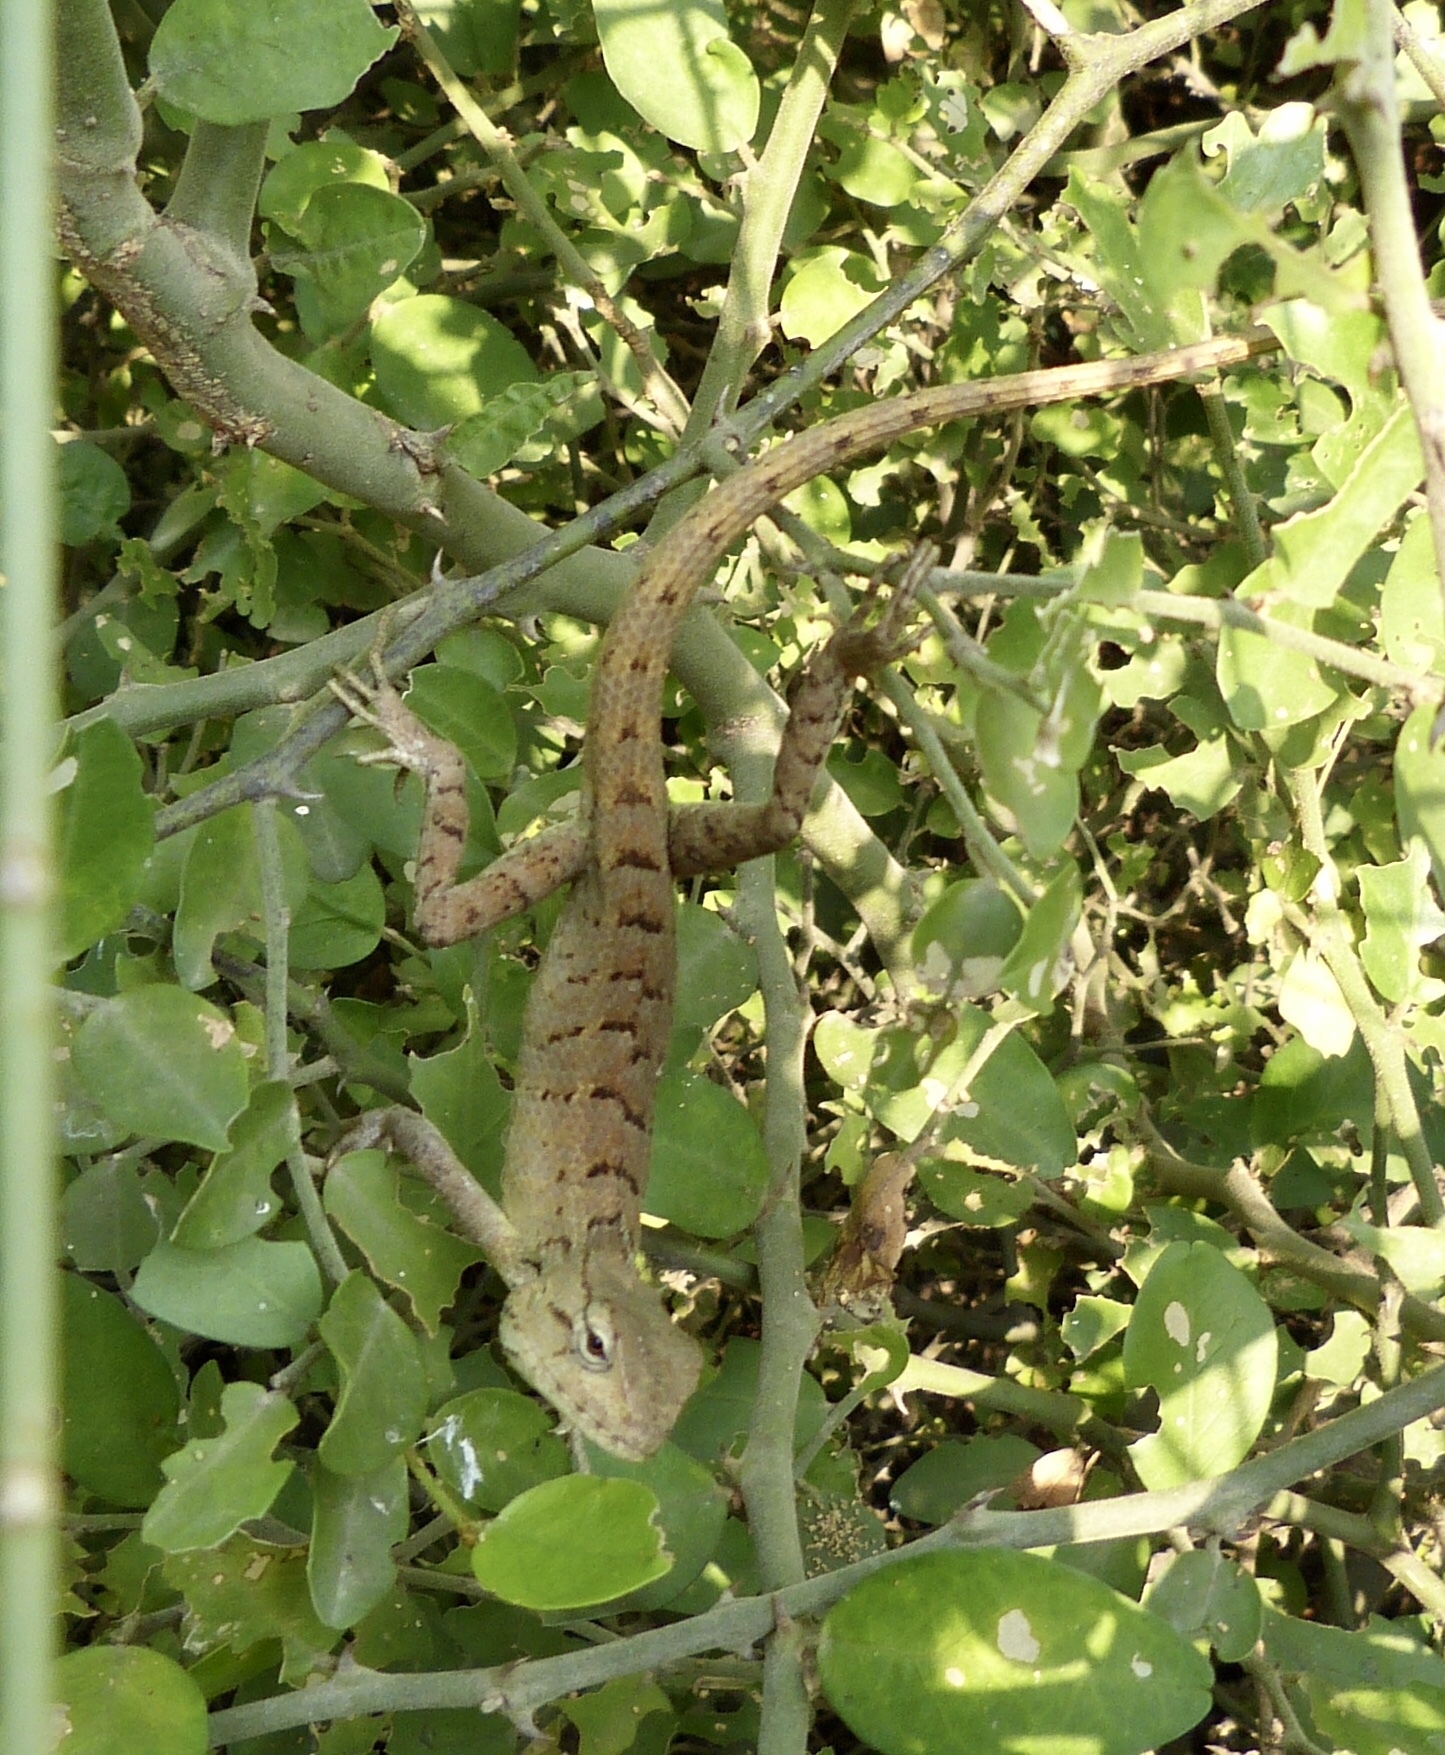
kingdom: Animalia
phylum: Chordata
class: Squamata
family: Agamidae
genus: Calotes
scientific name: Calotes versicolor
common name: Oriental garden lizard
